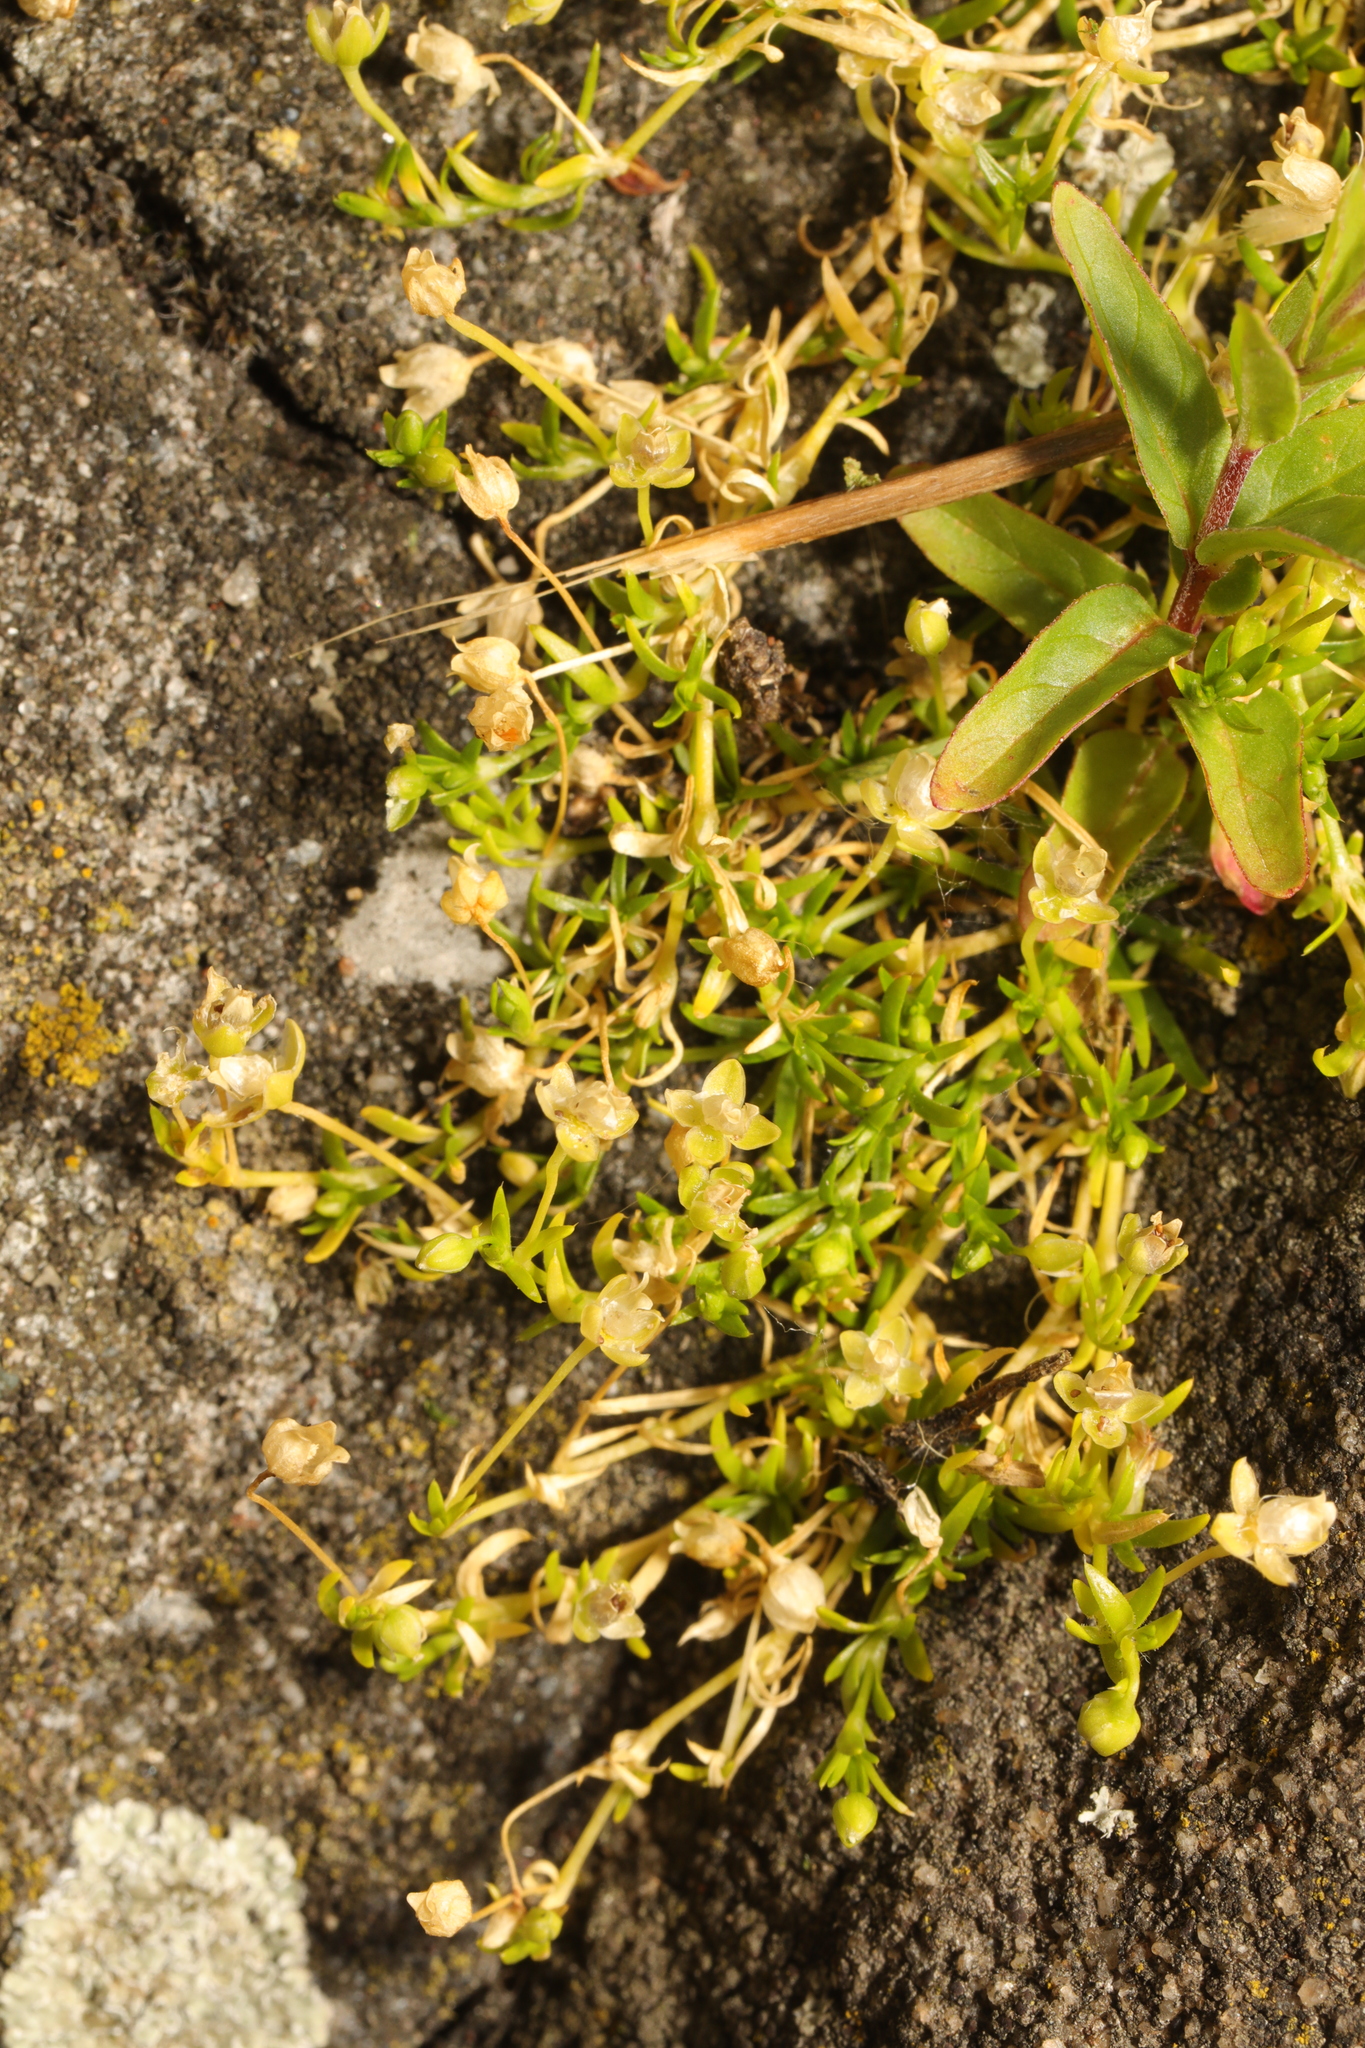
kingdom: Plantae
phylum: Tracheophyta
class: Magnoliopsida
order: Caryophyllales
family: Caryophyllaceae
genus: Sagina
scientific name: Sagina procumbens
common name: Procumbent pearlwort
